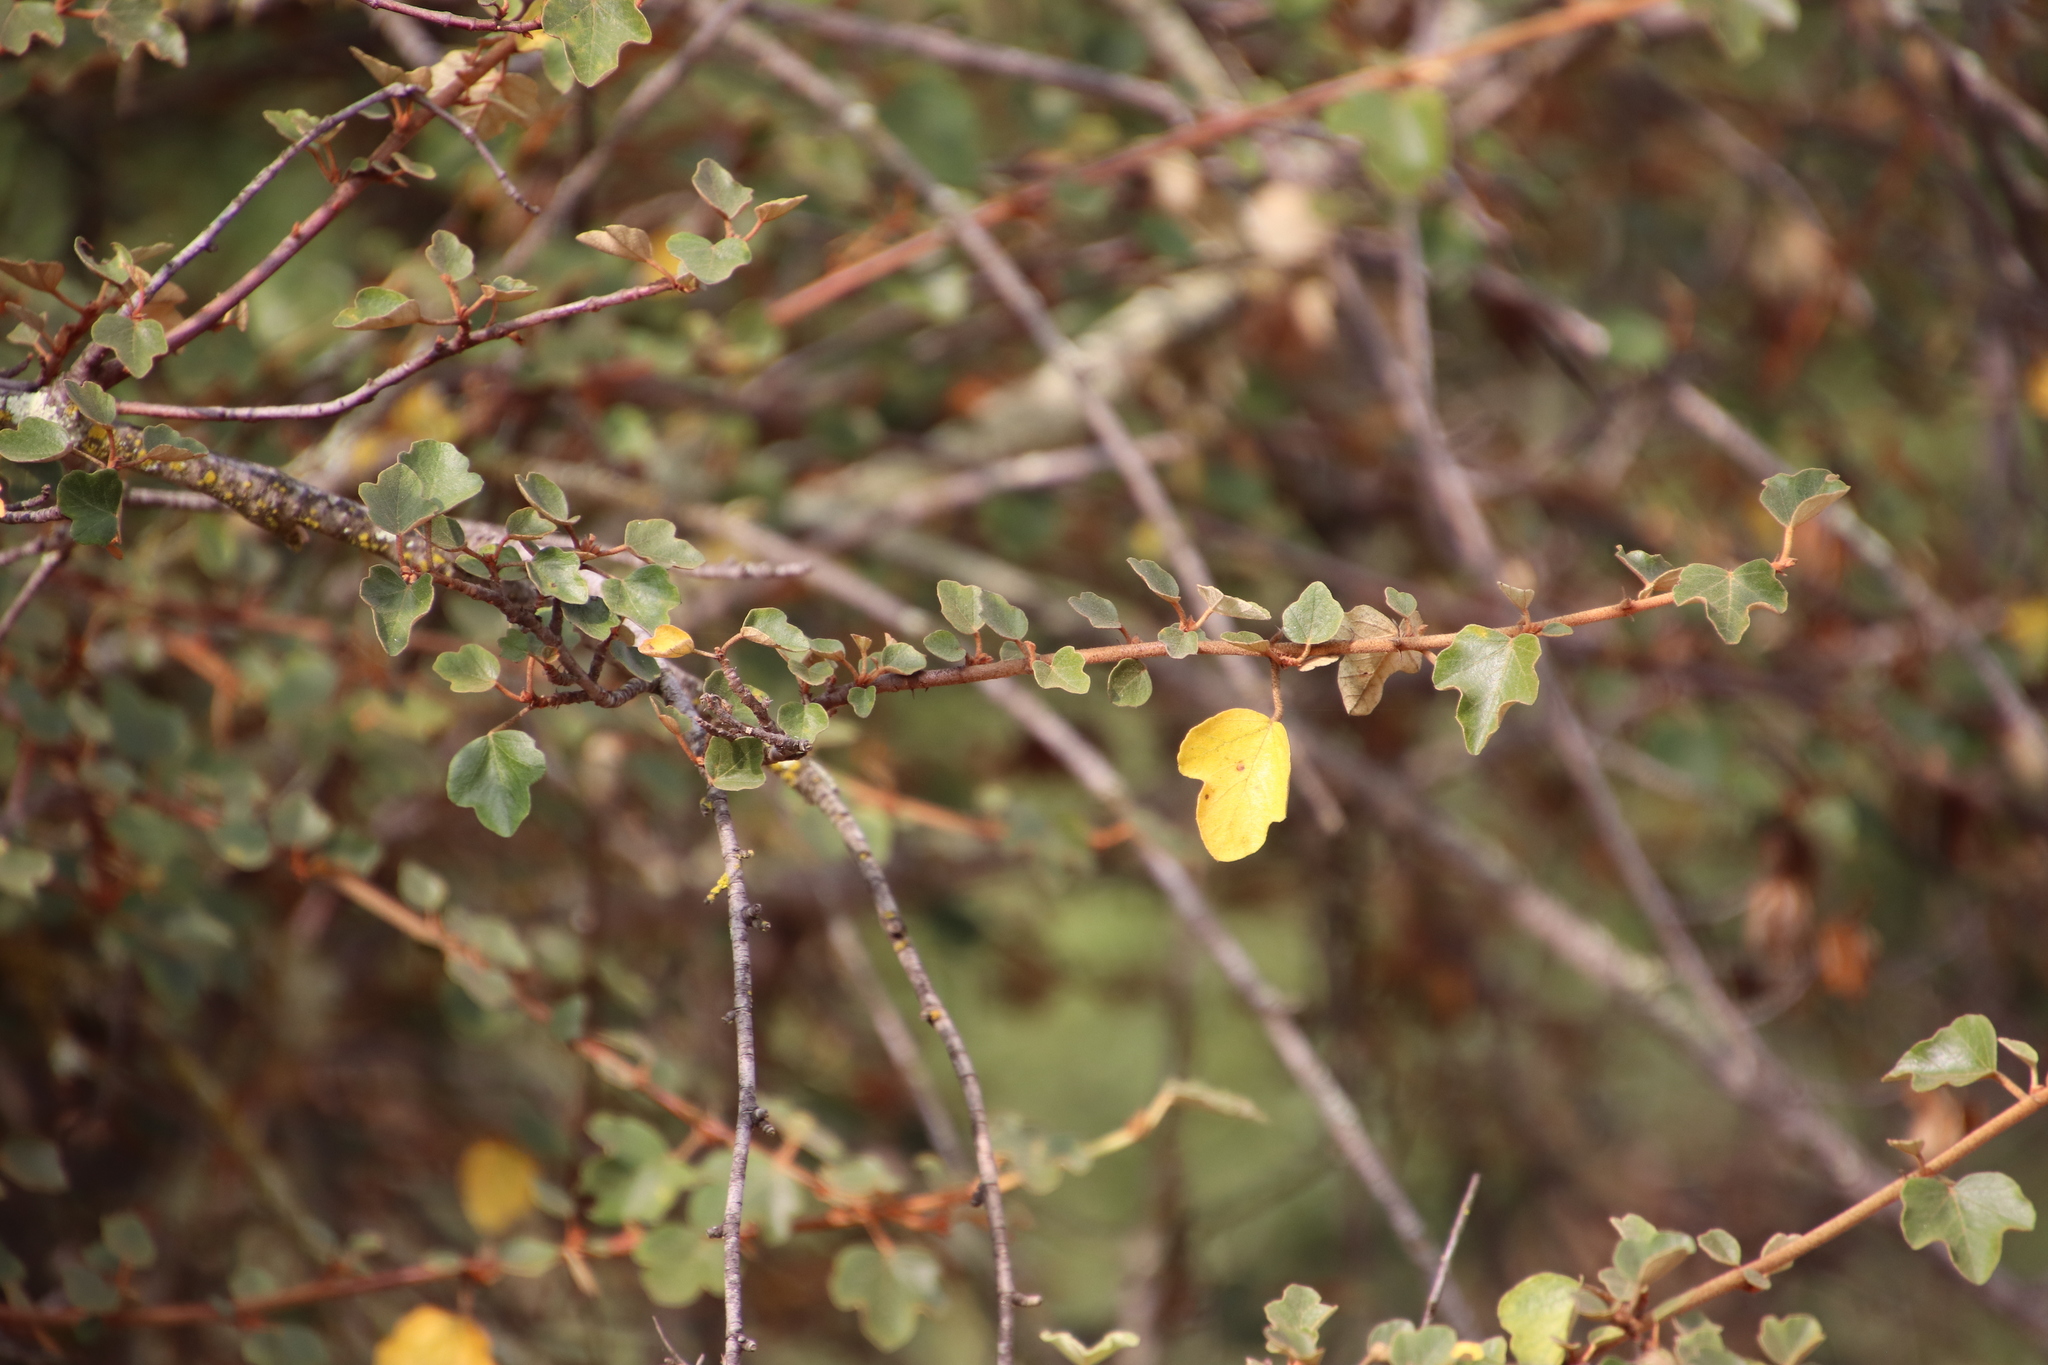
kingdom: Plantae
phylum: Tracheophyta
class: Magnoliopsida
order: Malvales
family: Malvaceae
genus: Fremontodendron
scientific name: Fremontodendron californicum
